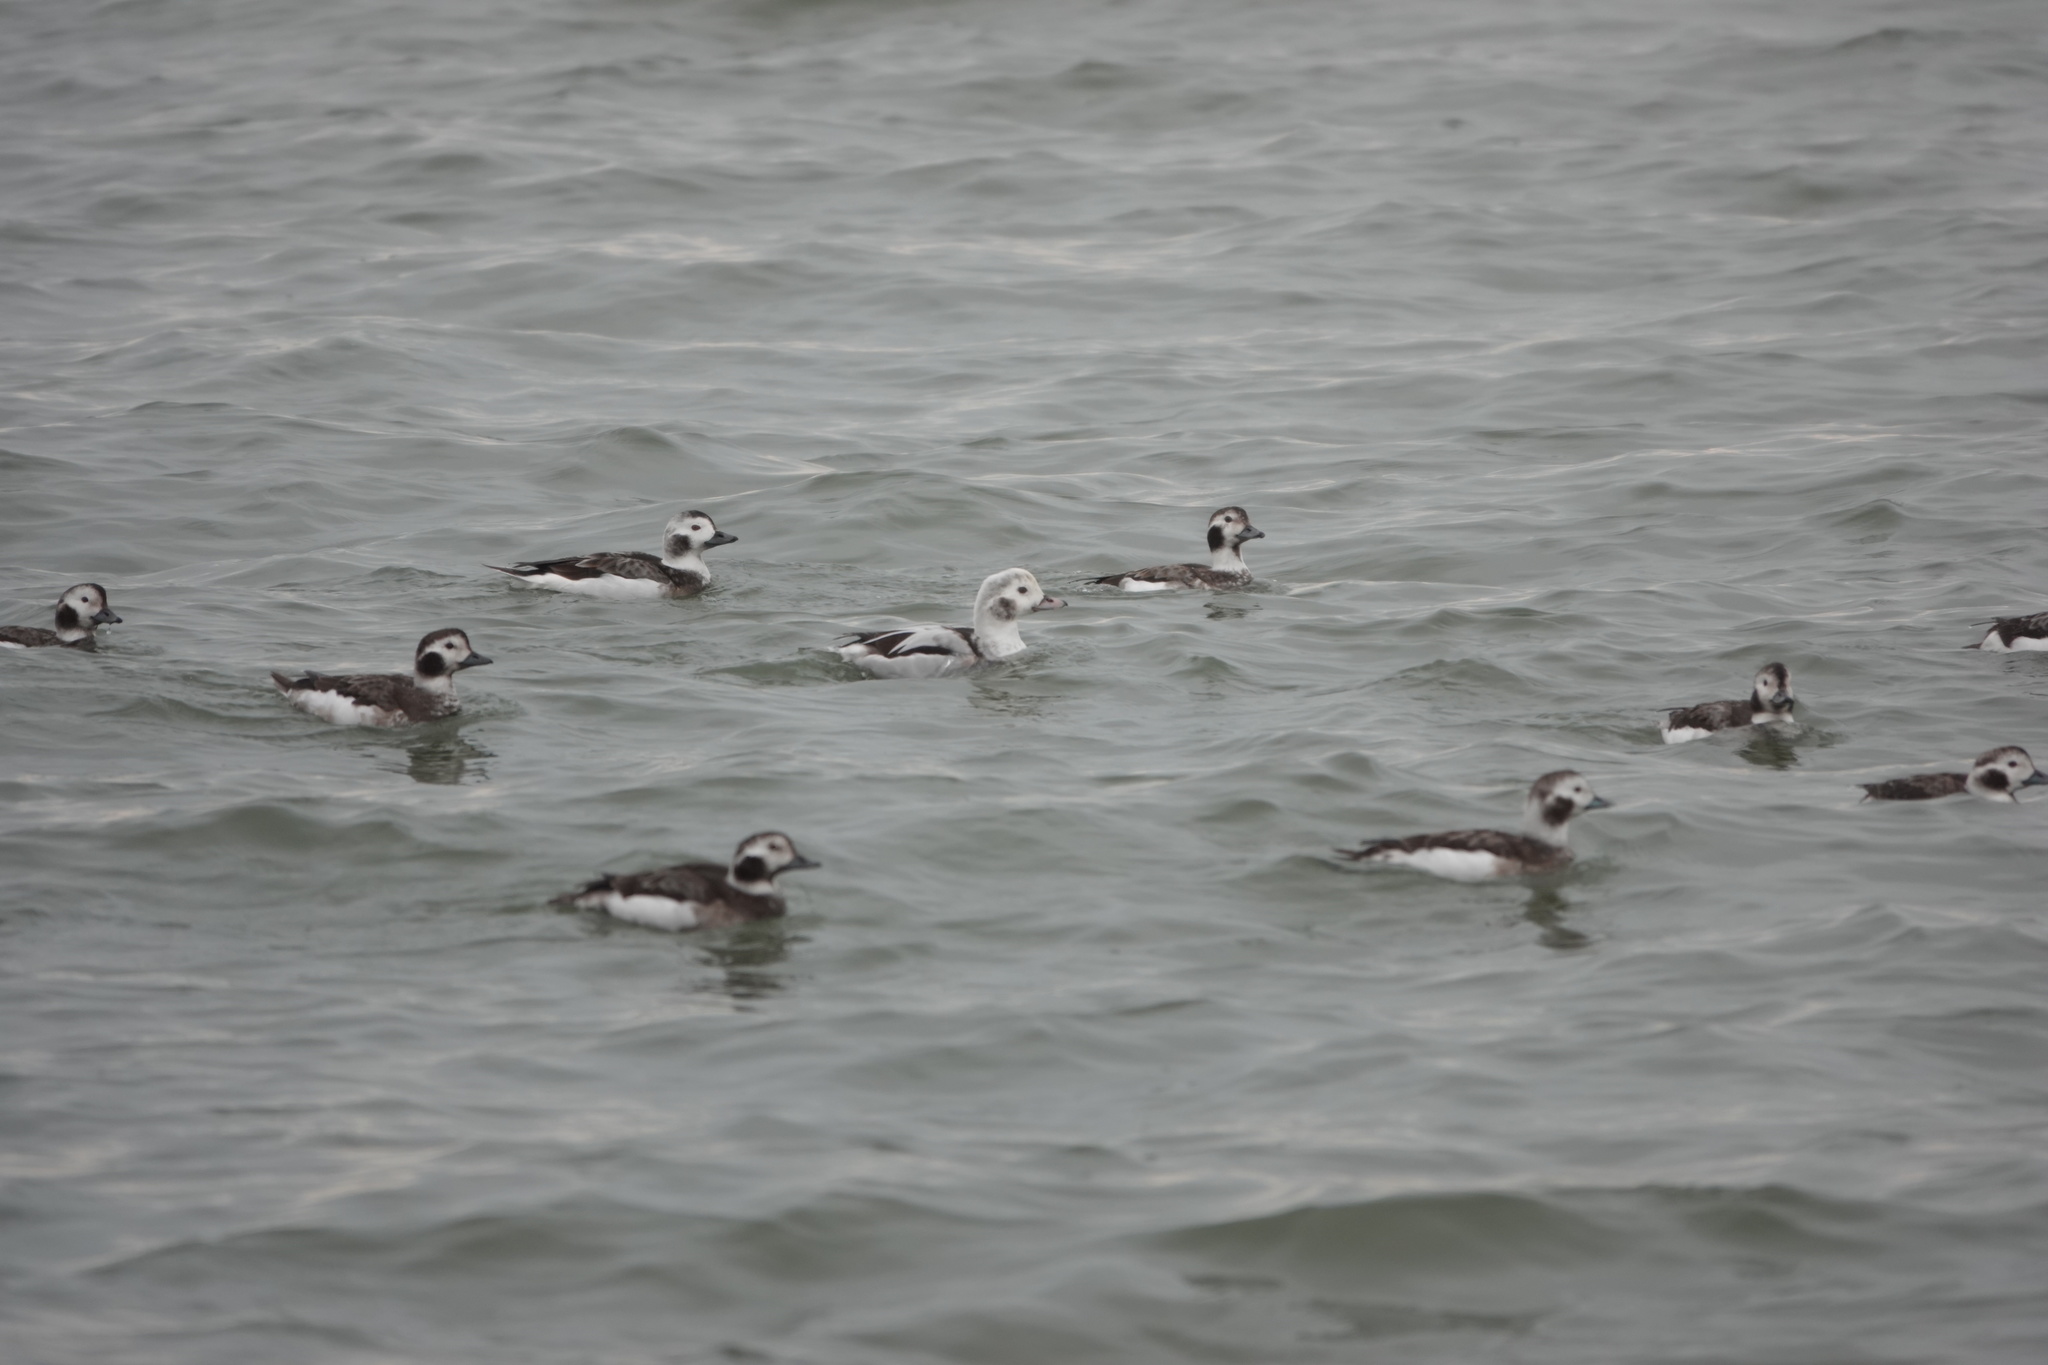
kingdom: Animalia
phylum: Chordata
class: Aves
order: Anseriformes
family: Anatidae
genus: Clangula
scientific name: Clangula hyemalis
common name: Long-tailed duck
